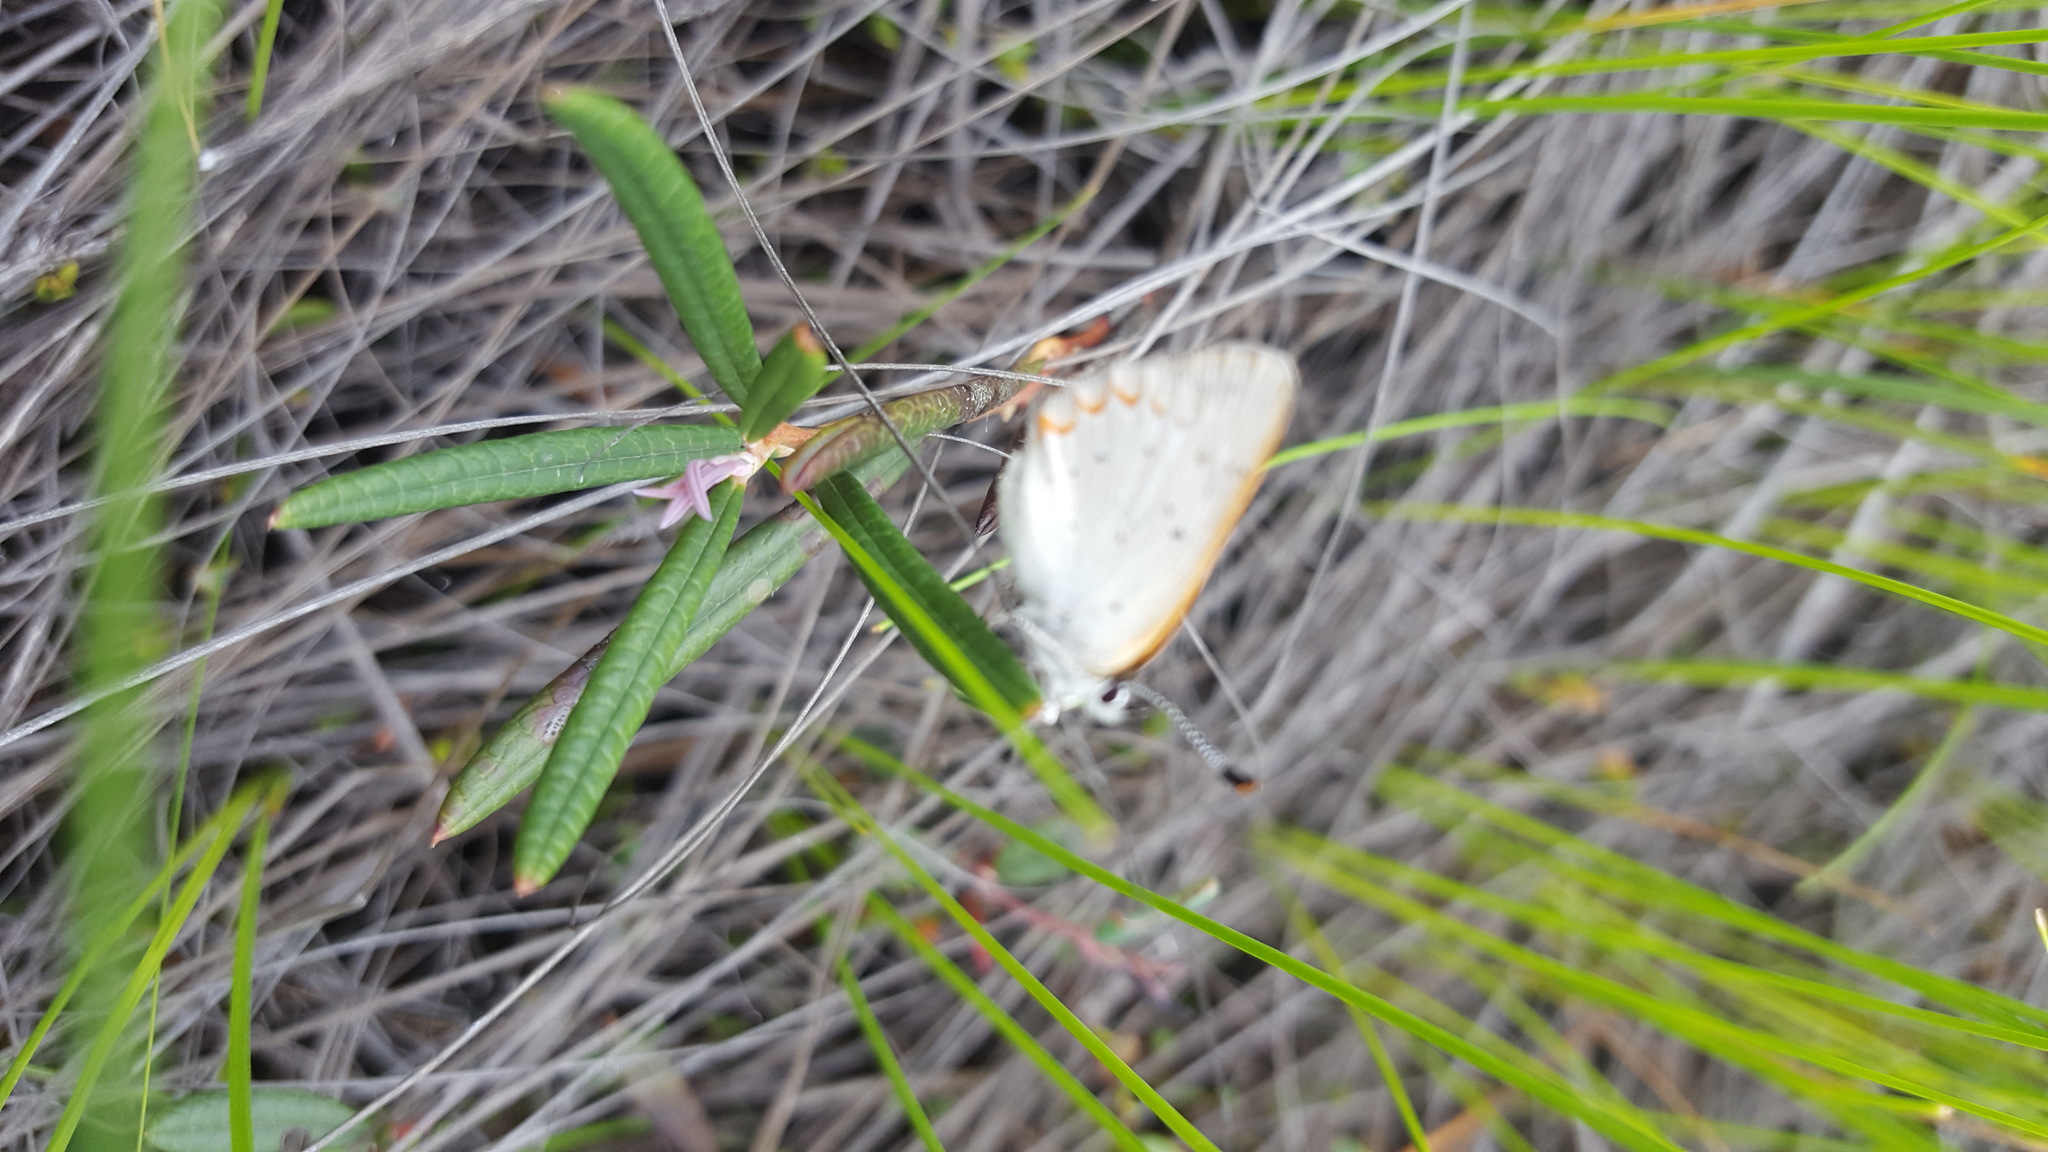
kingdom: Animalia
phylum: Arthropoda
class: Insecta
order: Lepidoptera
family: Lycaenidae
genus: Tharsalea
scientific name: Tharsalea epixanthe
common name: Bog copper
